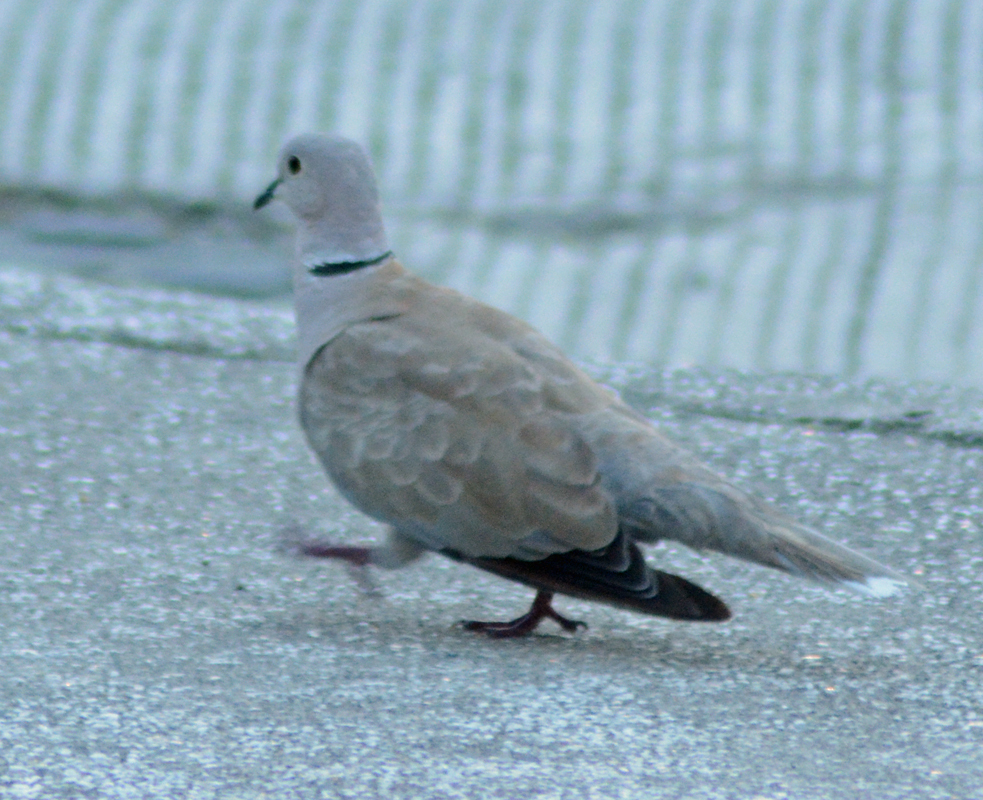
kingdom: Animalia
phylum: Chordata
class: Aves
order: Columbiformes
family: Columbidae
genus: Streptopelia
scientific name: Streptopelia decaocto
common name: Eurasian collared dove
